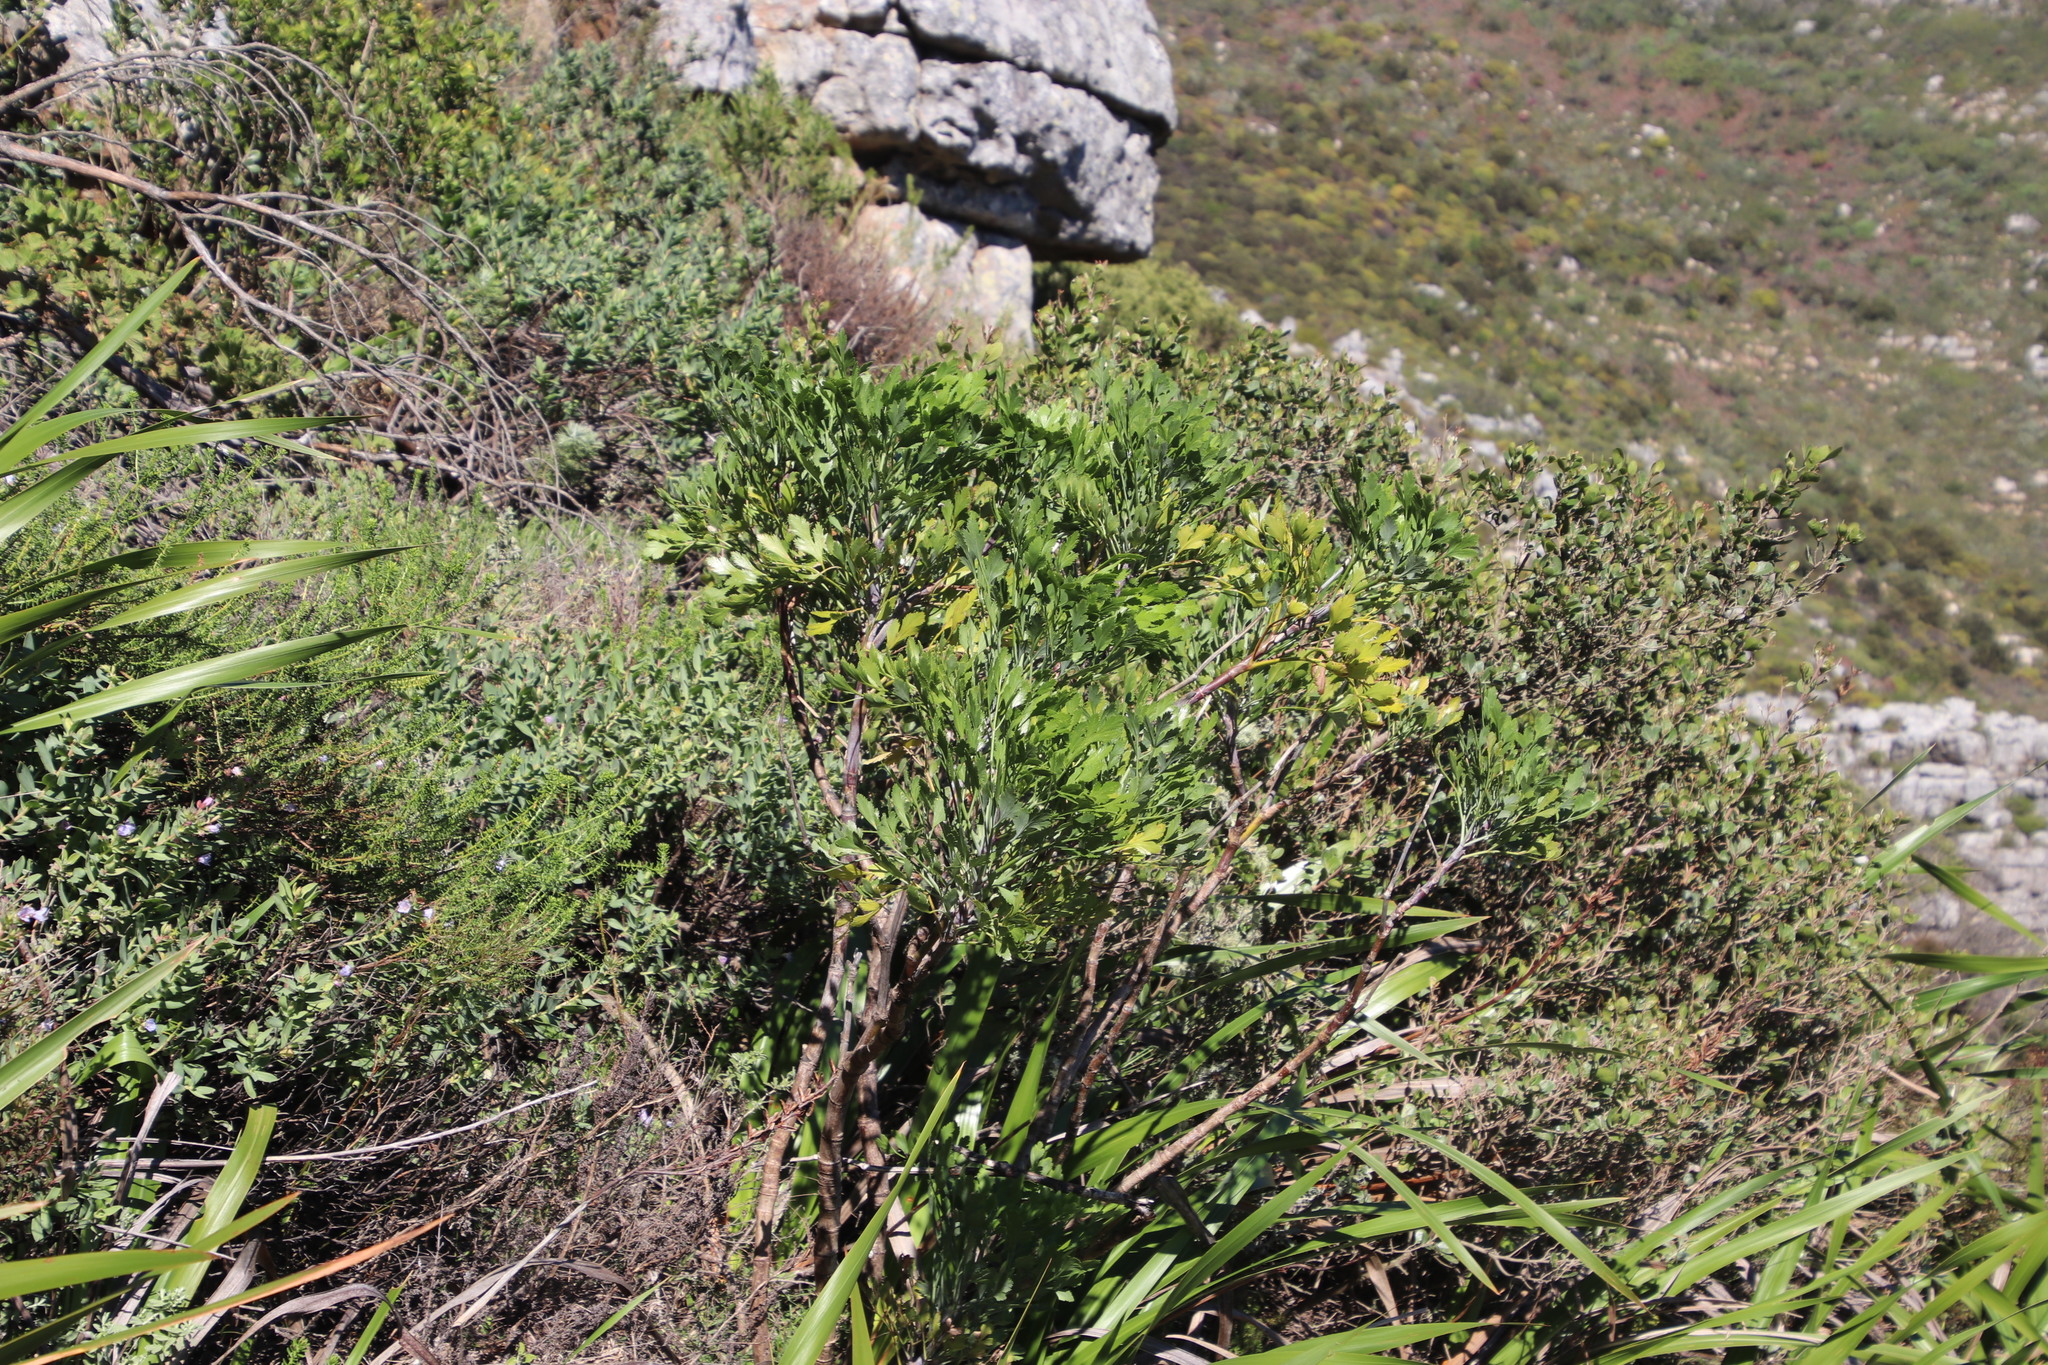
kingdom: Plantae
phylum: Tracheophyta
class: Magnoliopsida
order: Apiales
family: Apiaceae
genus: Notobubon
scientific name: Notobubon galbanum
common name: Blisterbush
